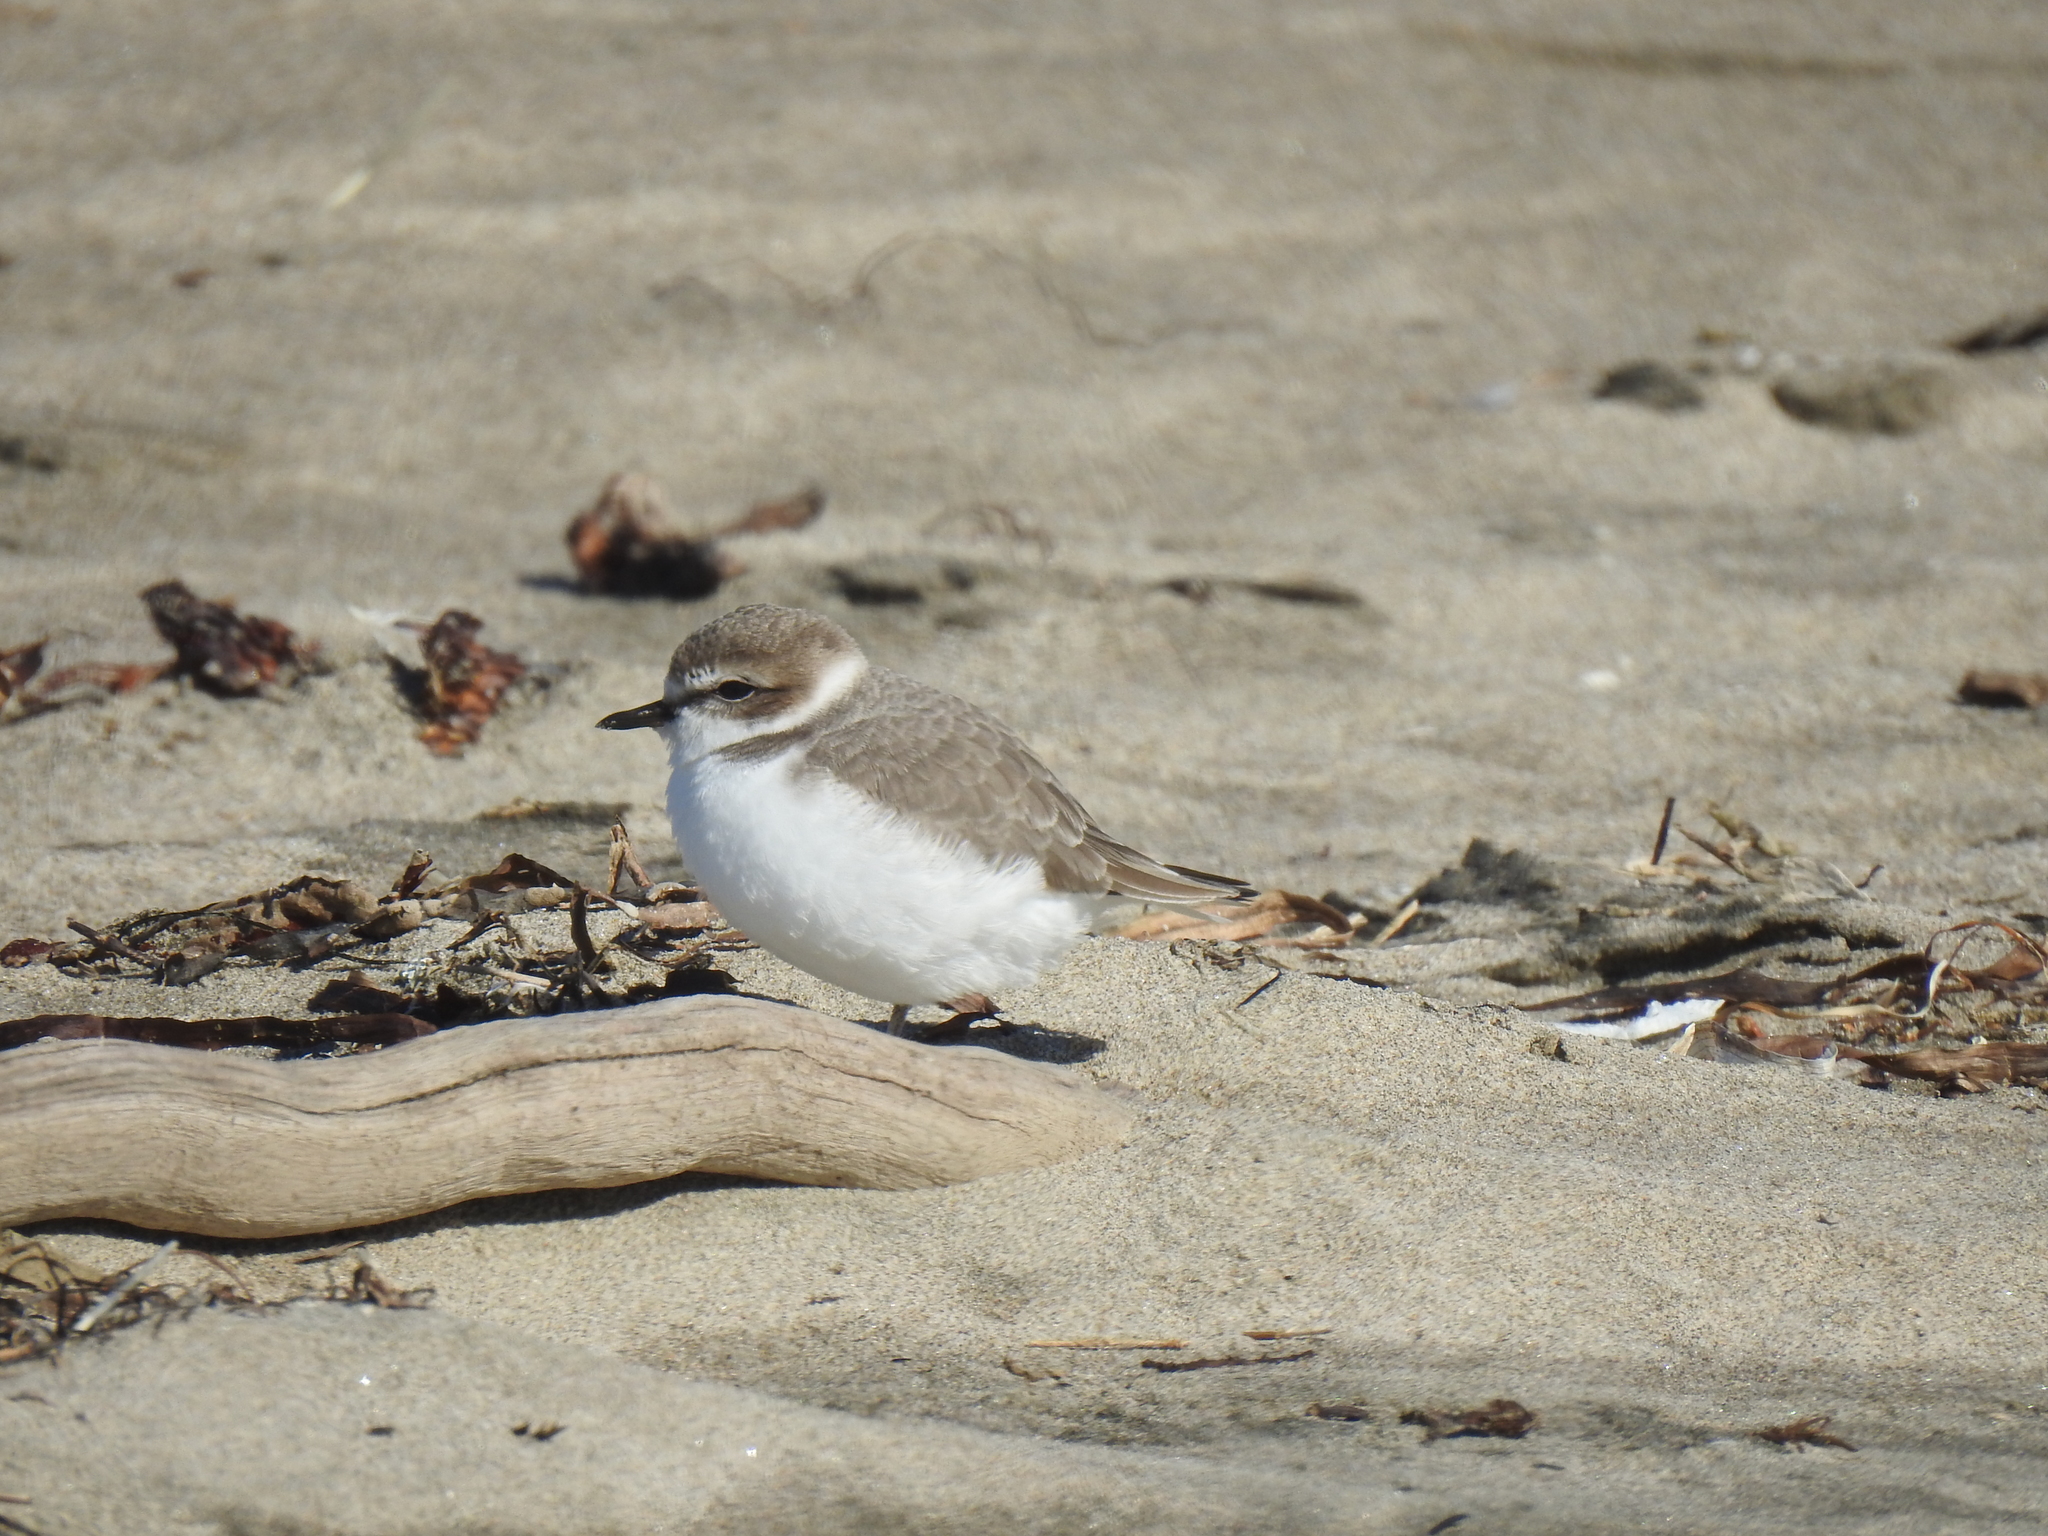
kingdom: Animalia
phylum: Chordata
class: Aves
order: Charadriiformes
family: Charadriidae
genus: Anarhynchus
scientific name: Anarhynchus
